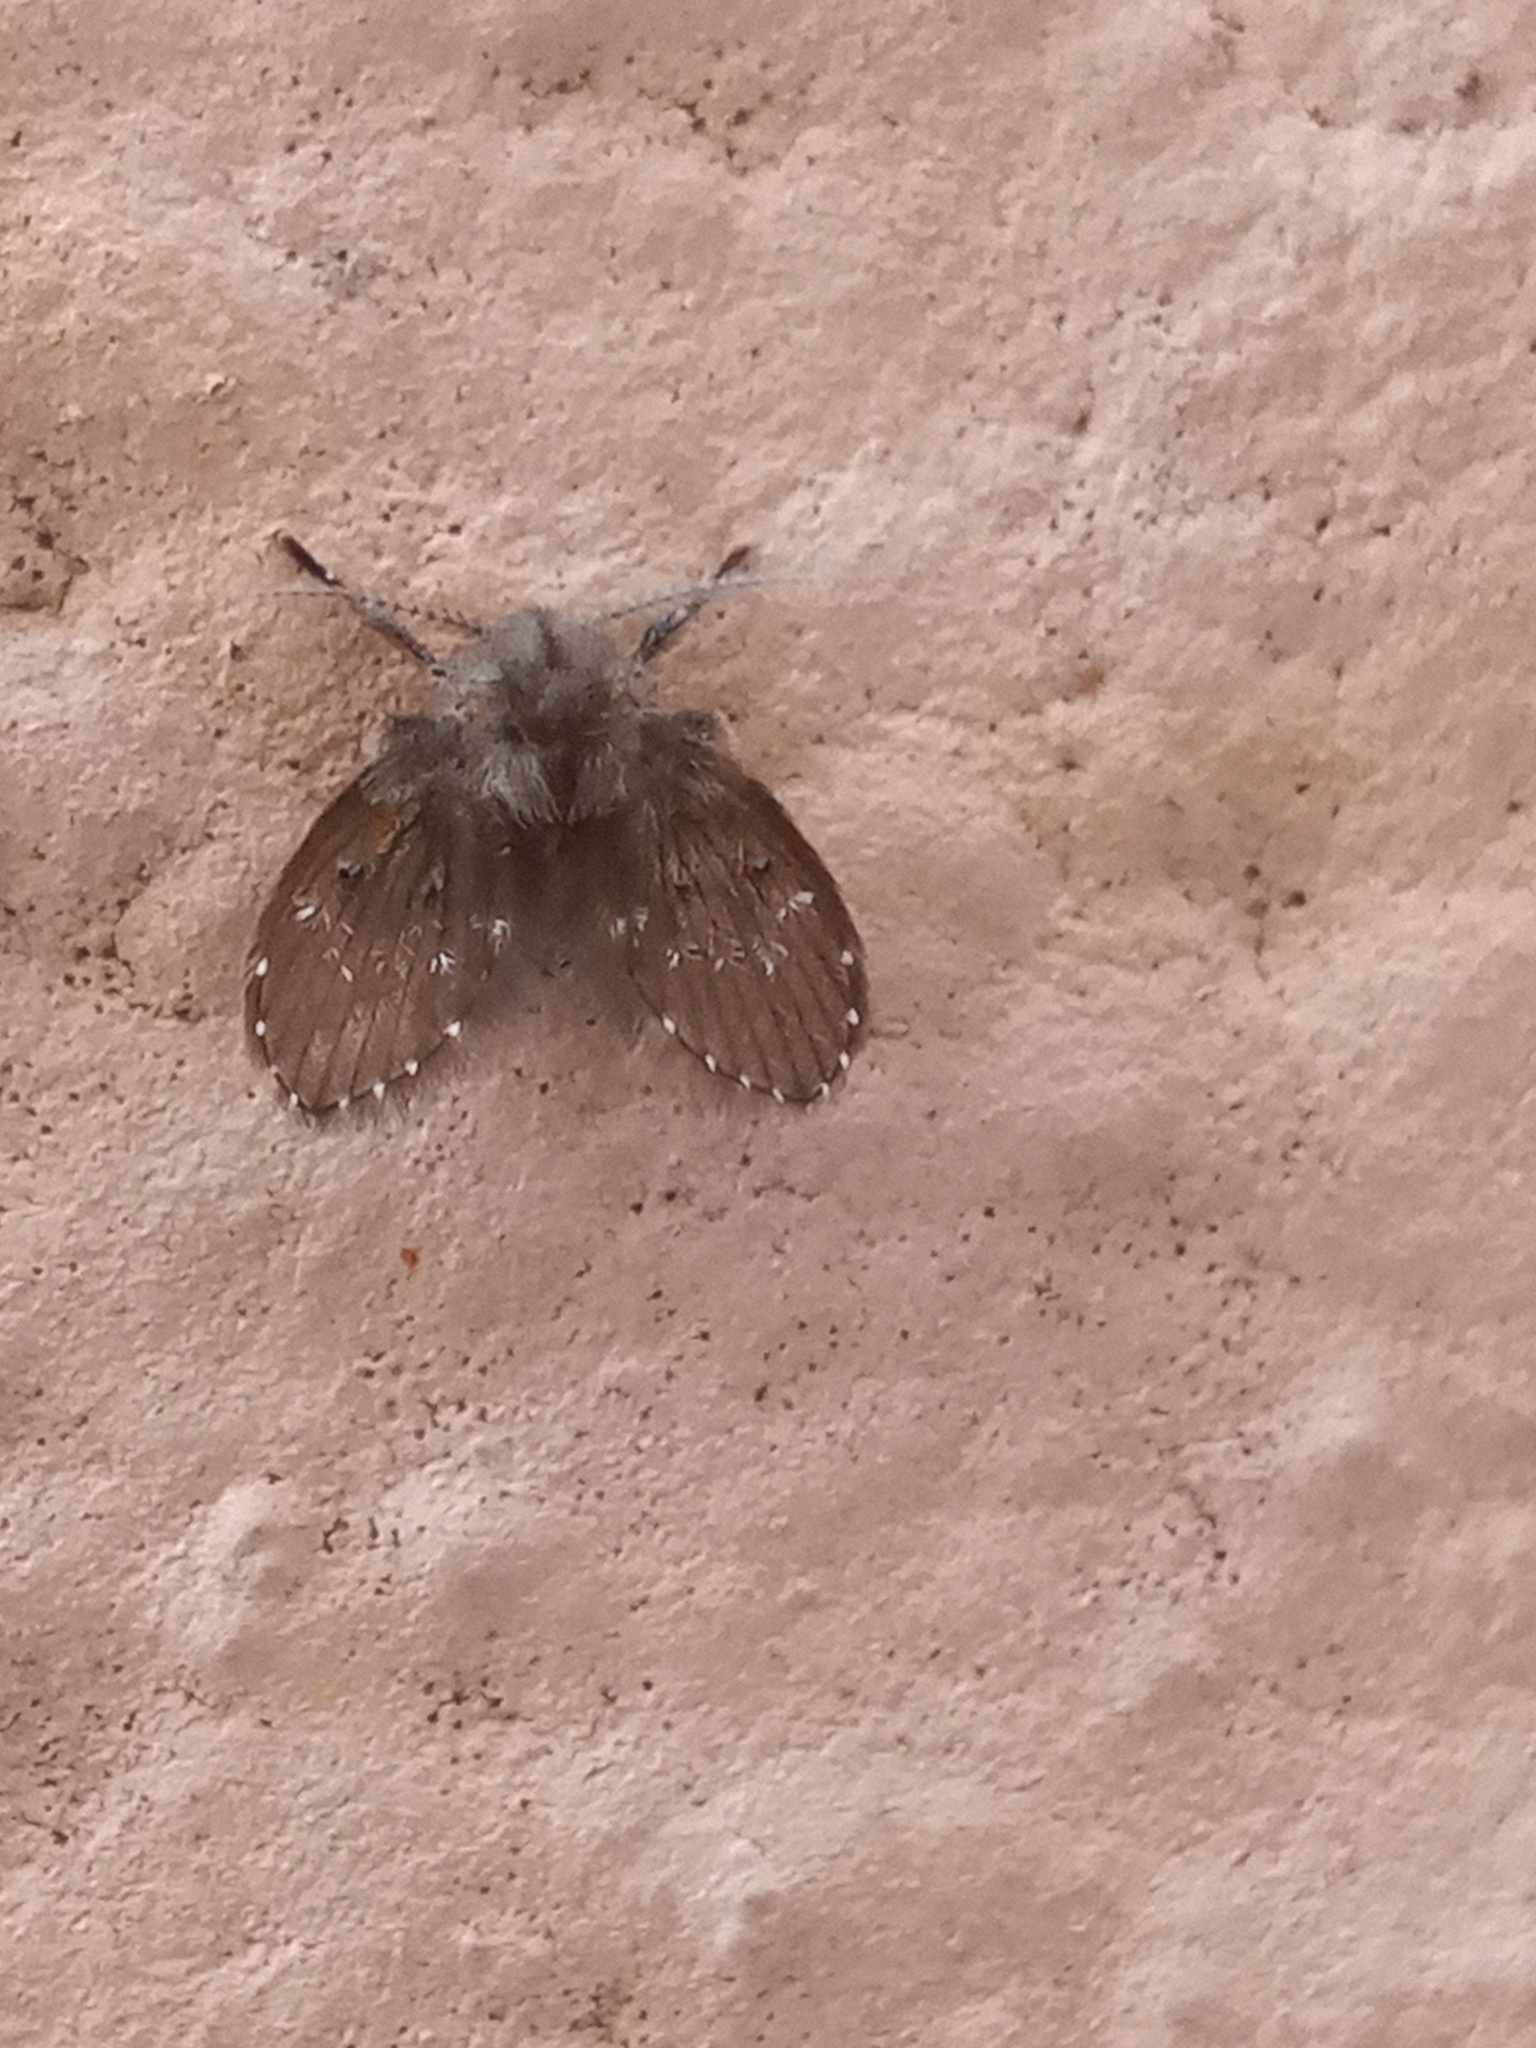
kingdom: Animalia
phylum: Arthropoda
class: Insecta
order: Diptera
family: Psychodidae
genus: Clogmia
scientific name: Clogmia albipunctatus
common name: White-spotted moth fly
